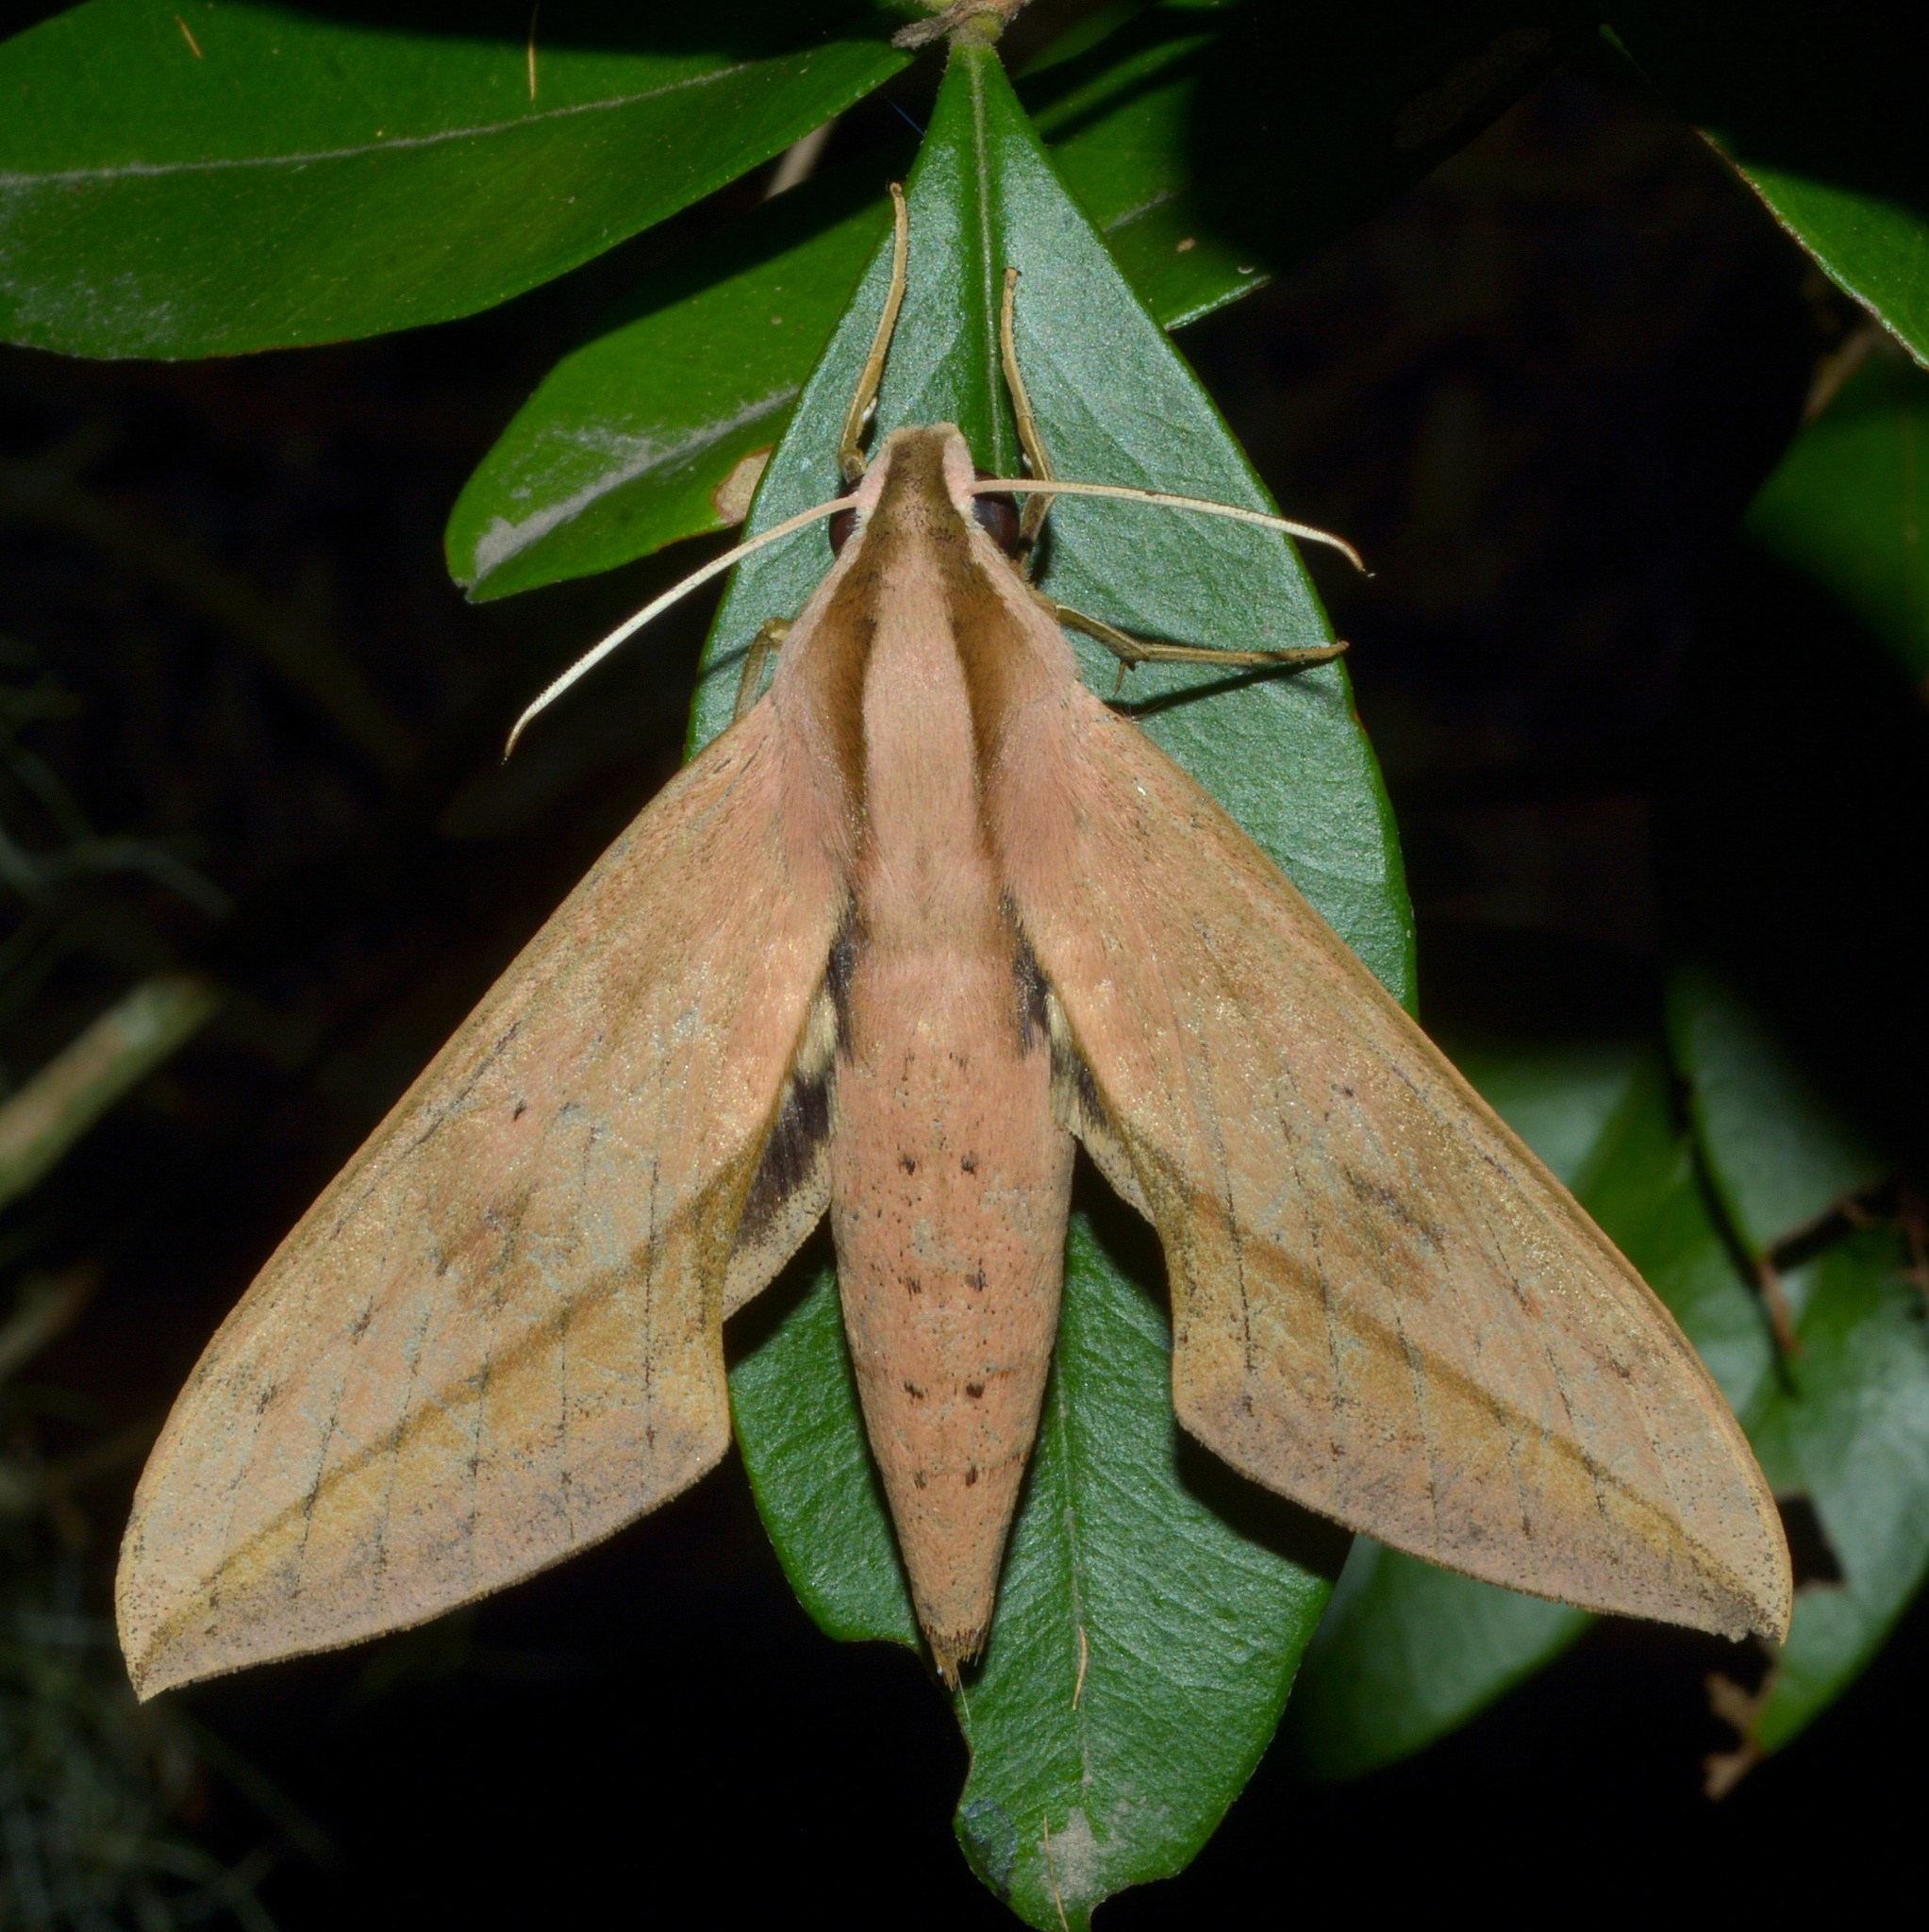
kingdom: Animalia
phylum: Arthropoda
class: Insecta
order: Lepidoptera
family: Sphingidae
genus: Xylophanes
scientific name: Xylophanes anubus
